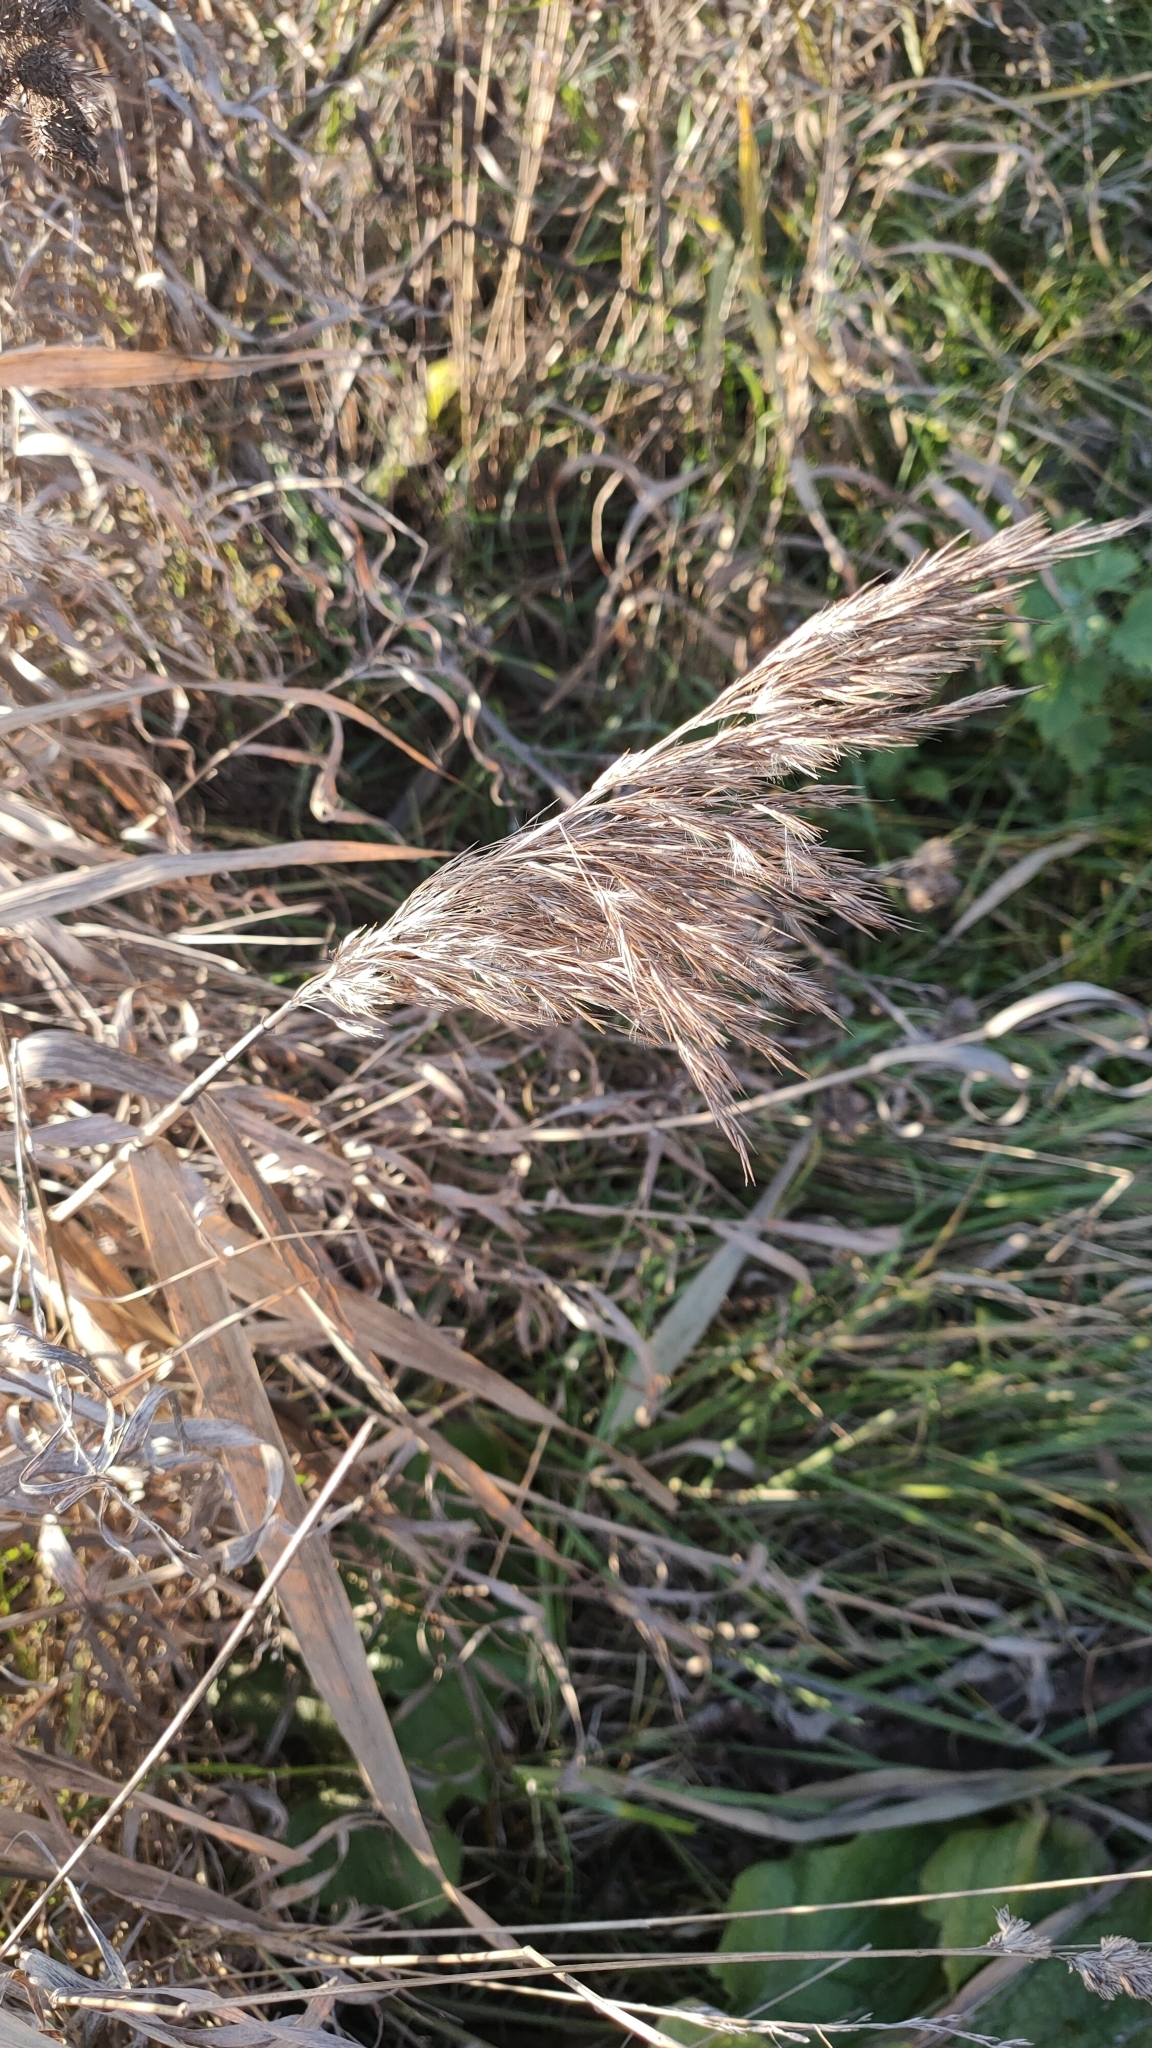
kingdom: Plantae
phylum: Tracheophyta
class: Liliopsida
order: Poales
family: Poaceae
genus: Phragmites
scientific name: Phragmites australis
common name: Common reed
